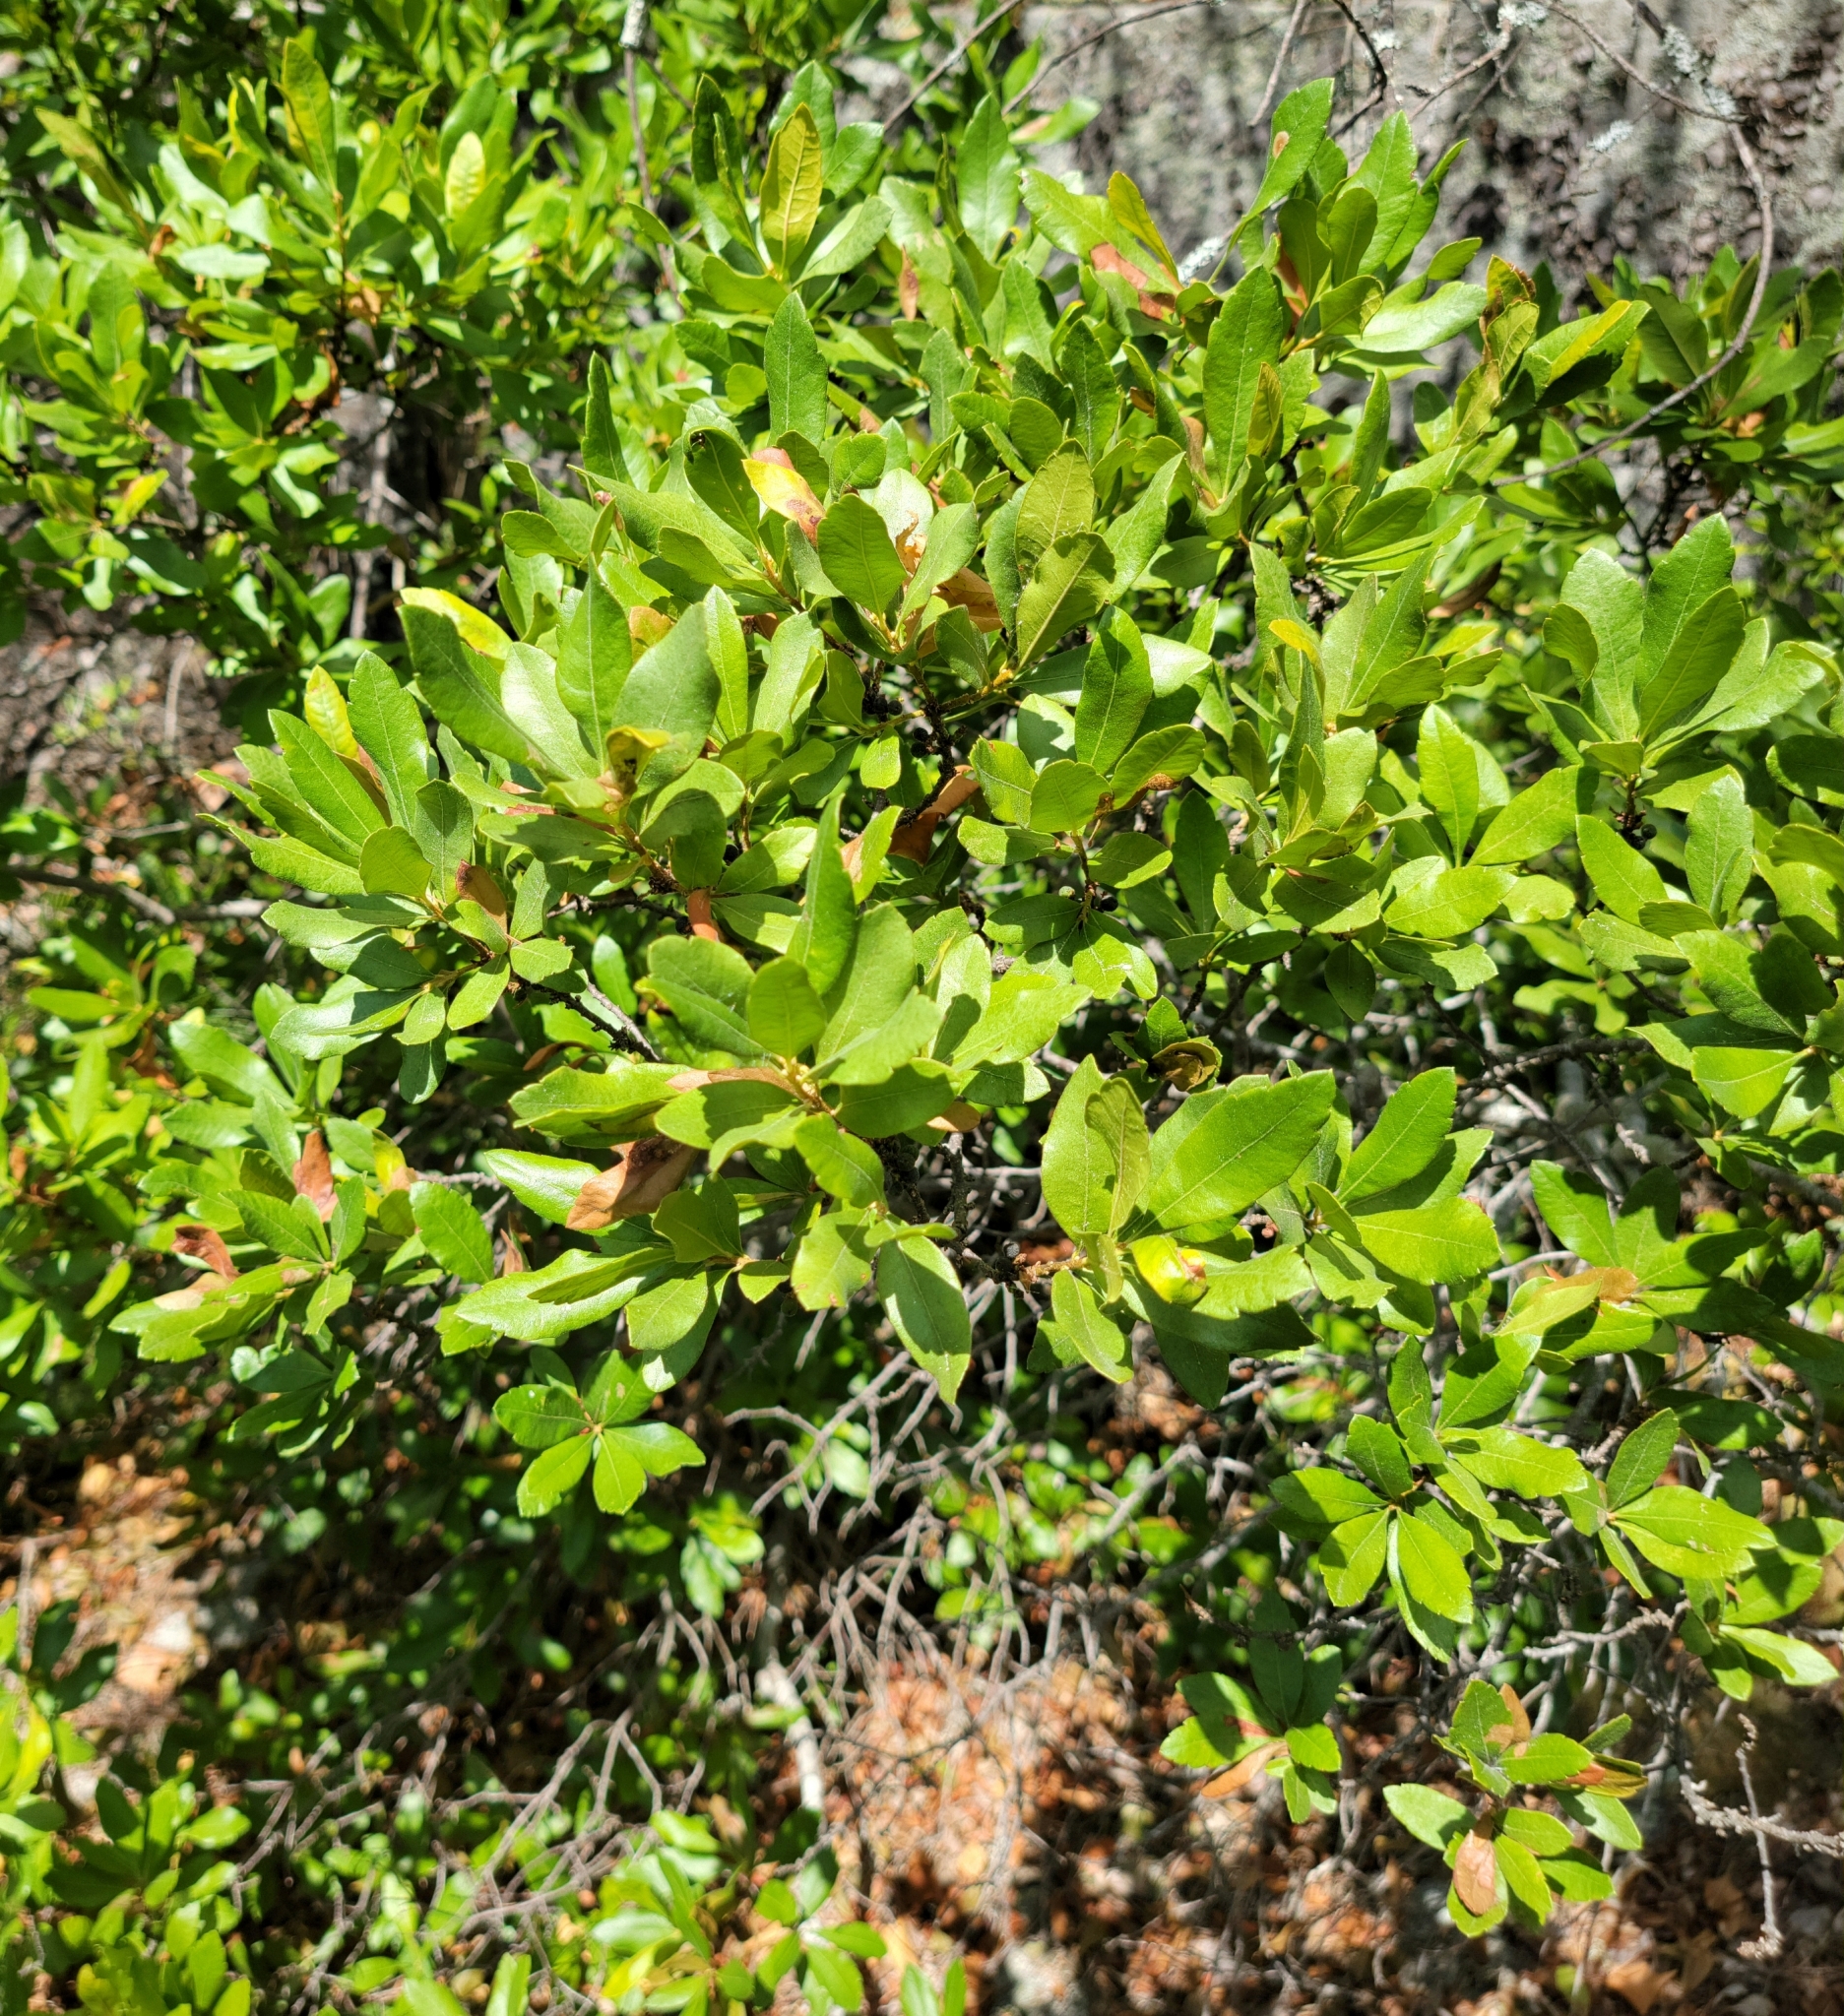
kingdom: Plantae
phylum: Tracheophyta
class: Magnoliopsida
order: Fagales
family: Myricaceae
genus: Morella
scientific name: Morella pensylvanica
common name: Northern bayberry
